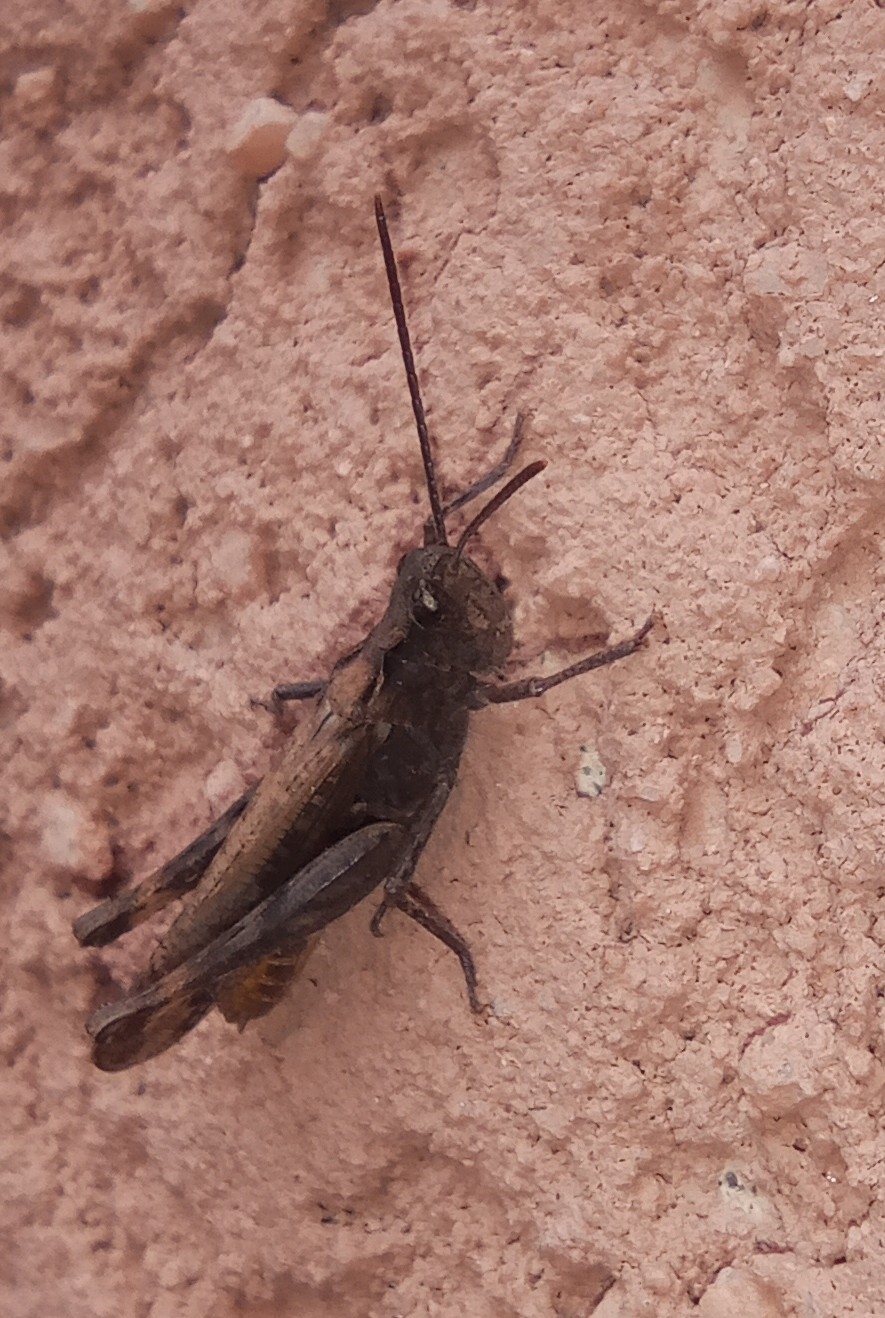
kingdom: Animalia
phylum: Arthropoda
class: Insecta
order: Orthoptera
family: Acrididae
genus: Chorthippus
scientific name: Chorthippus brunneus
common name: Field grasshopper
